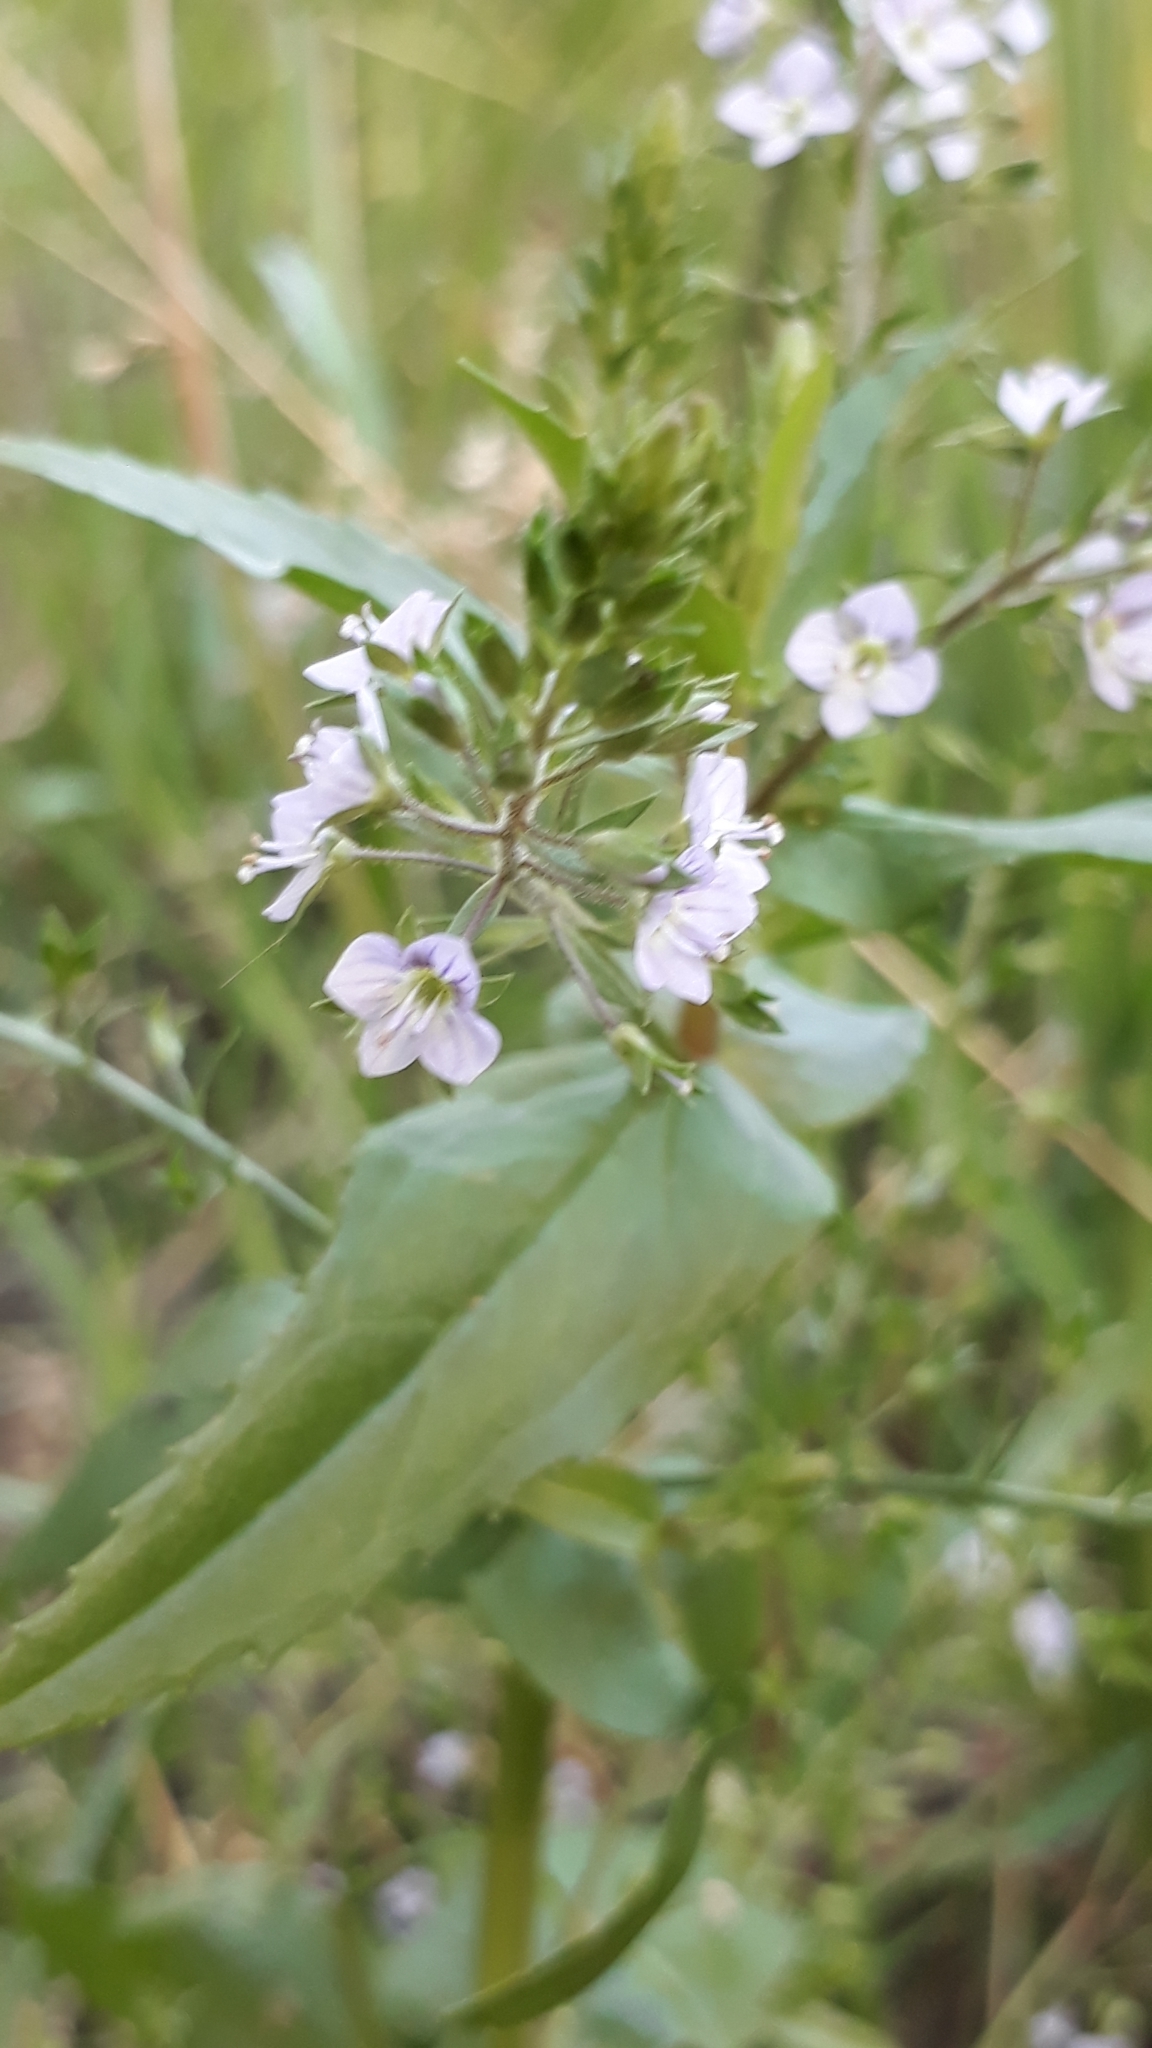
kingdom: Plantae
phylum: Tracheophyta
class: Magnoliopsida
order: Lamiales
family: Plantaginaceae
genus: Veronica
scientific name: Veronica anagallis-aquatica
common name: Water speedwell
